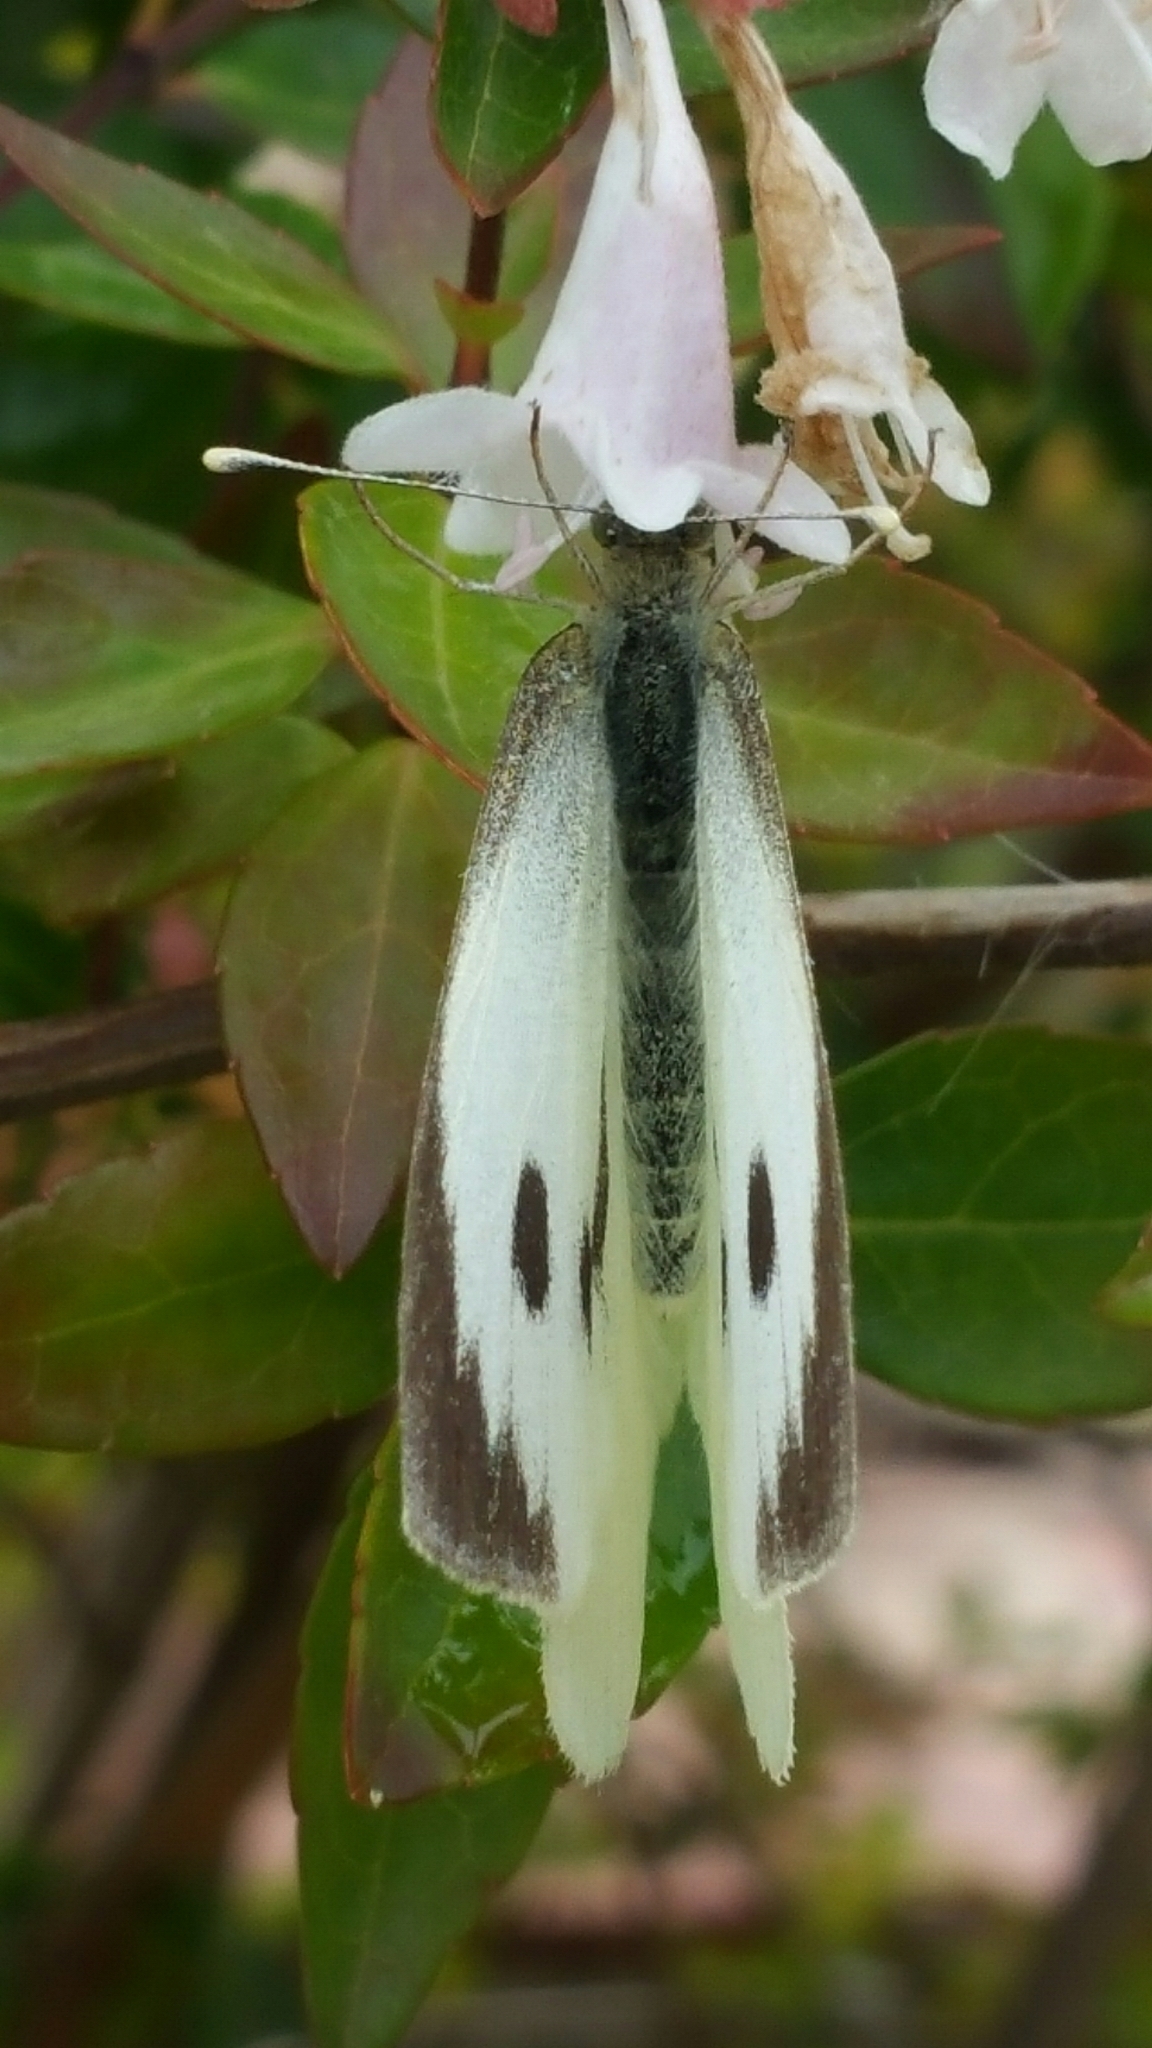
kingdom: Animalia
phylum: Arthropoda
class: Insecta
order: Lepidoptera
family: Pieridae
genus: Pieris
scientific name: Pieris brassicae
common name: Large white
